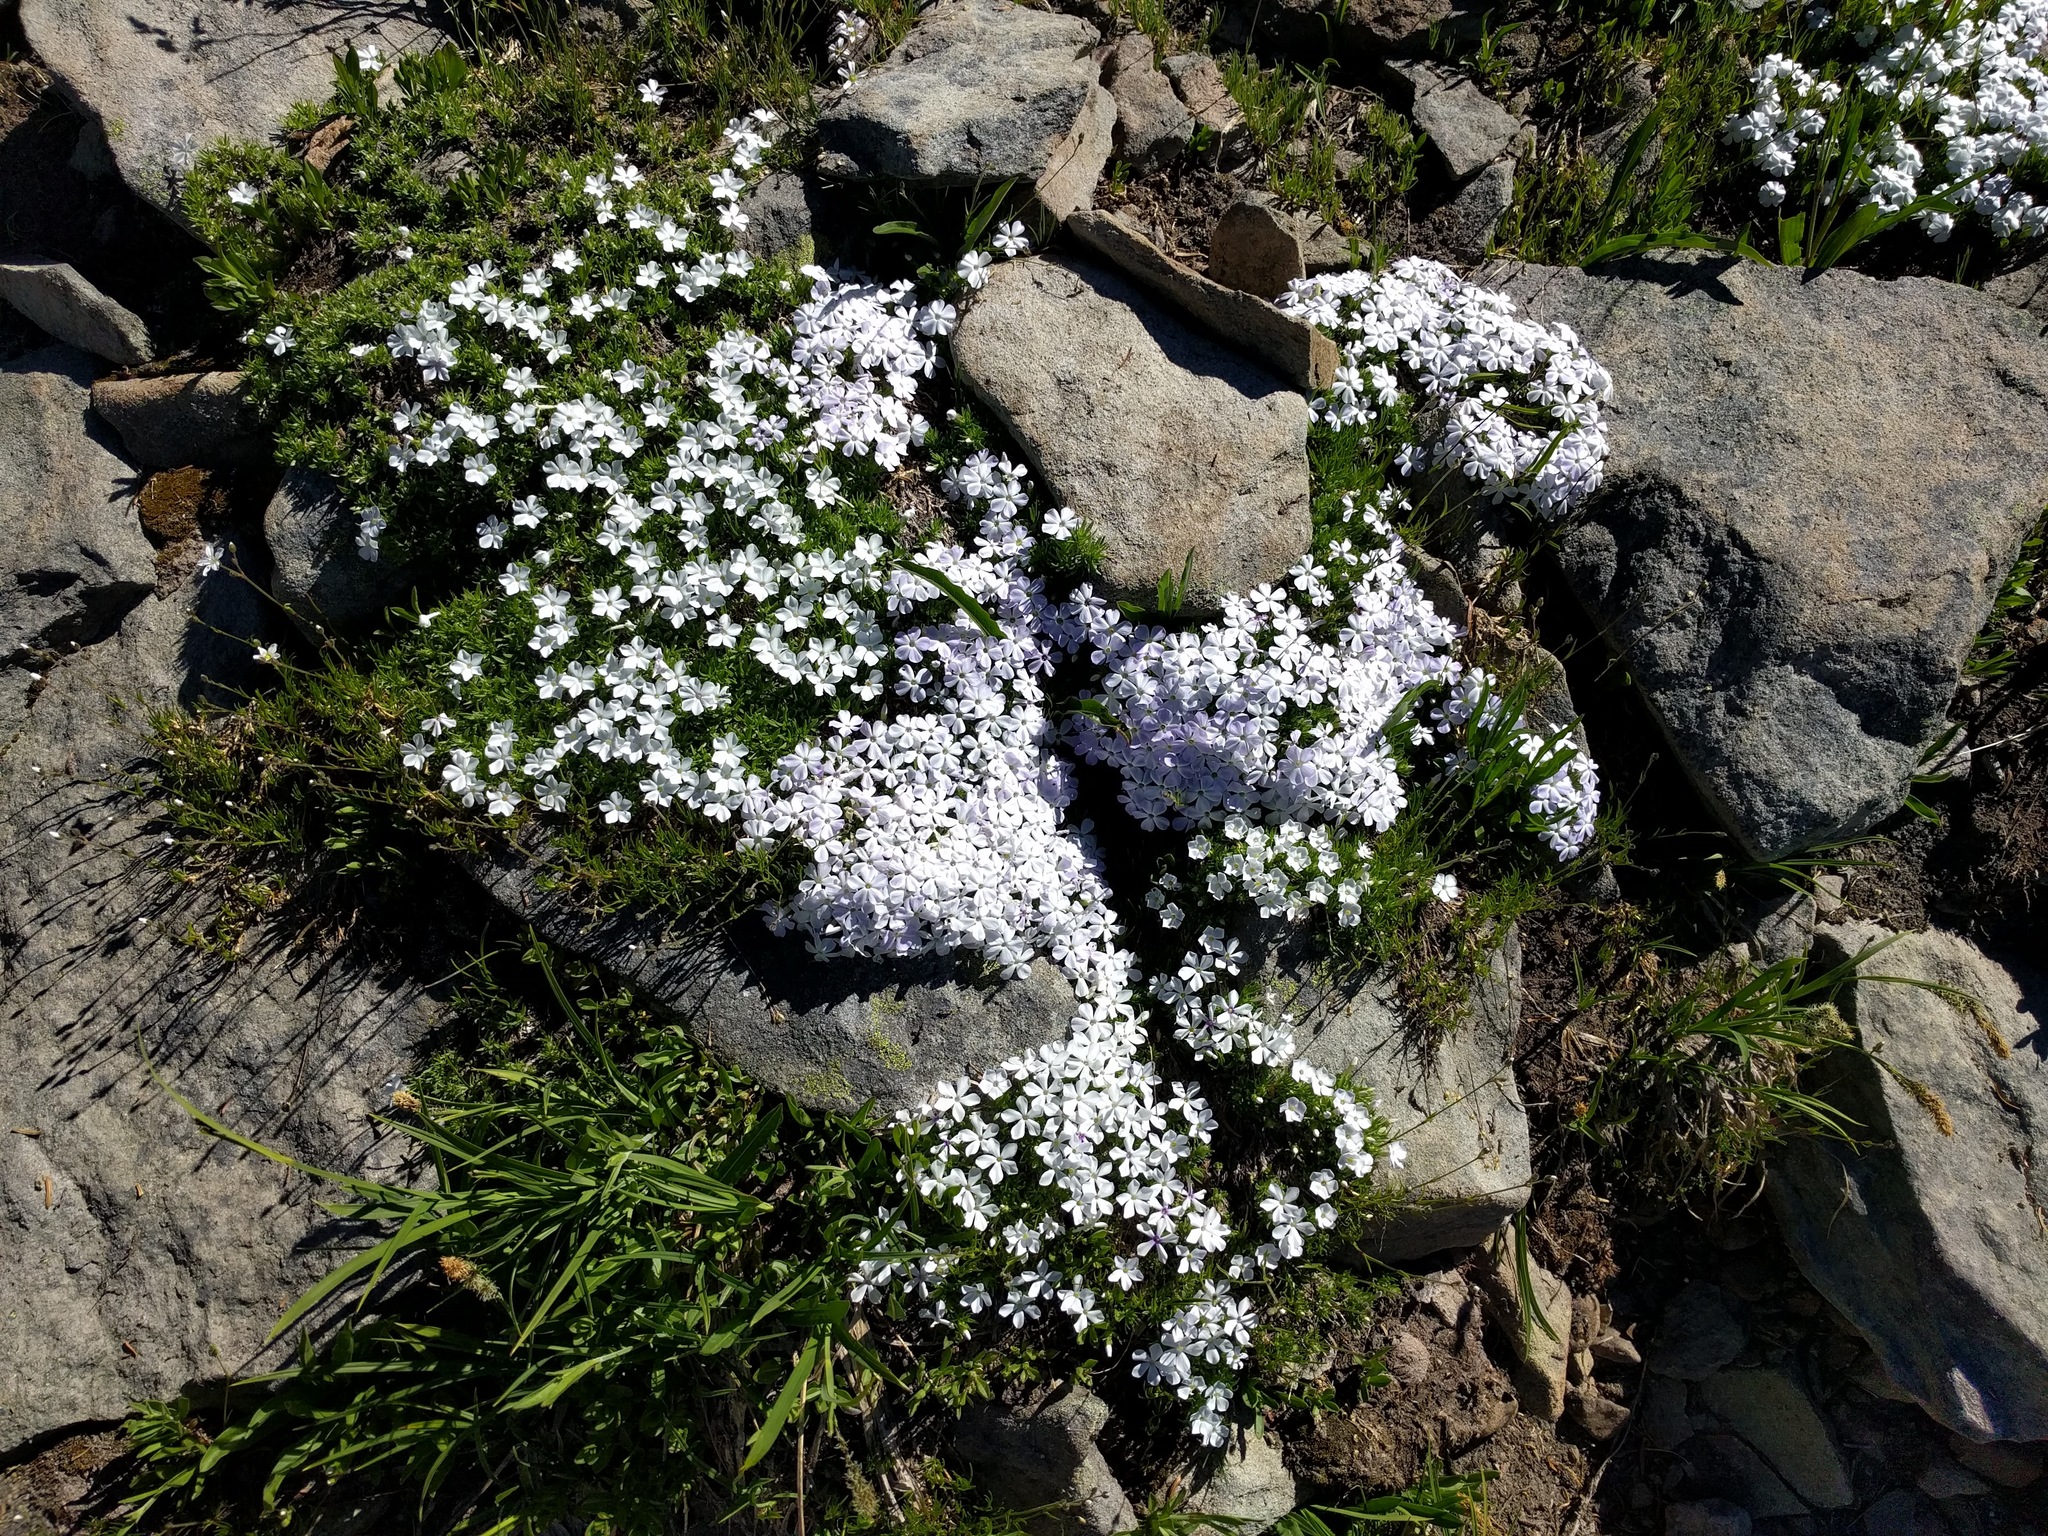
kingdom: Plantae
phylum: Tracheophyta
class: Magnoliopsida
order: Ericales
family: Polemoniaceae
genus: Phlox
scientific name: Phlox diffusa
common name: Mat phlox
